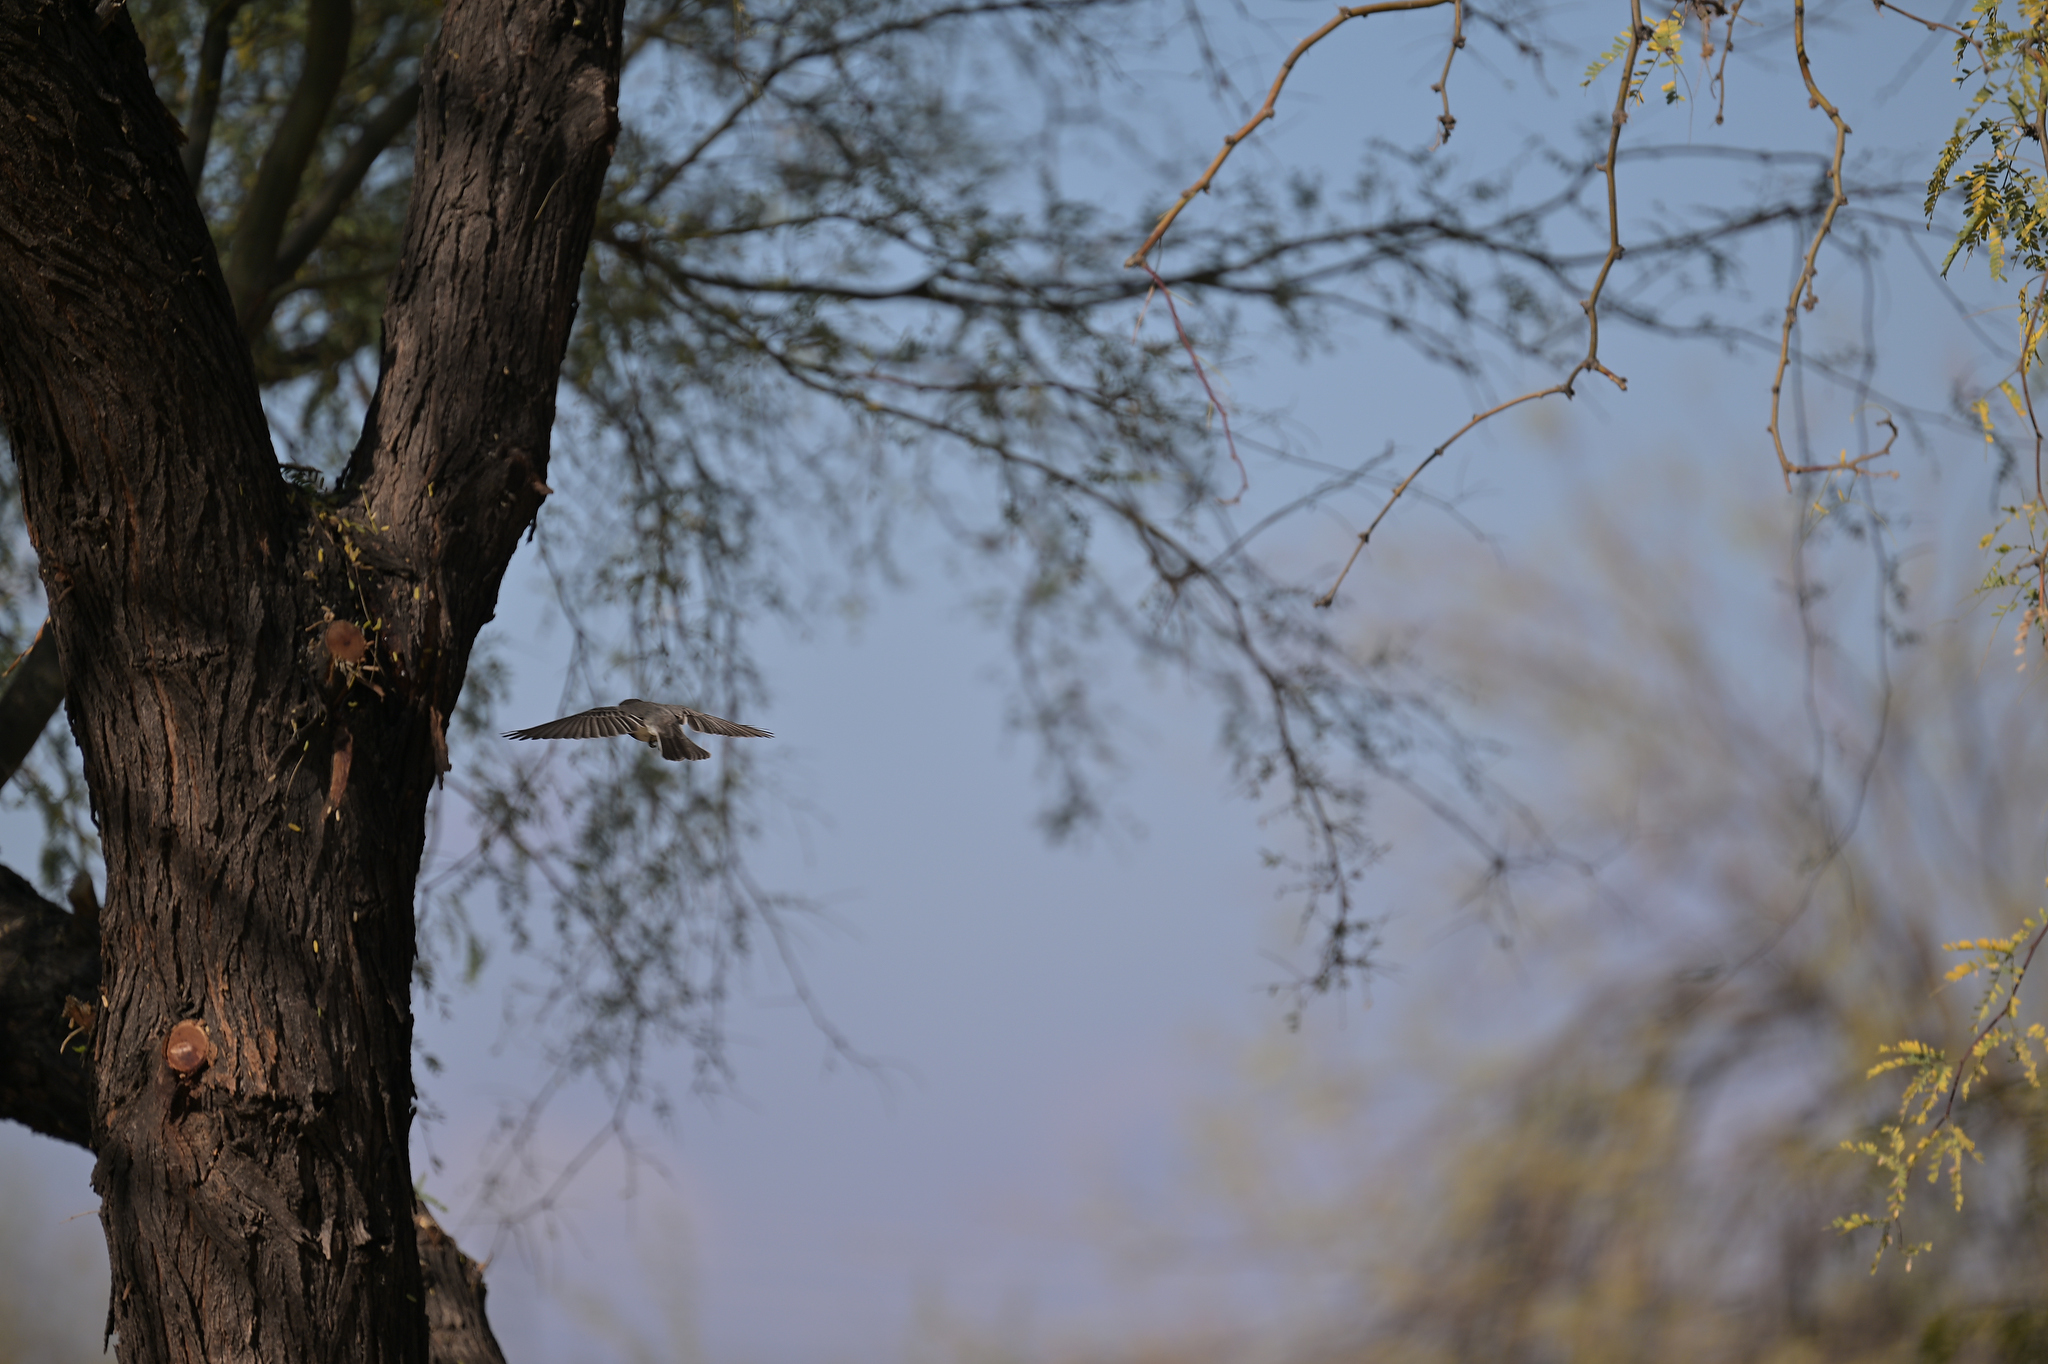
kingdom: Animalia
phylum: Chordata
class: Aves
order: Passeriformes
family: Tyrannidae
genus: Sayornis
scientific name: Sayornis nigricans
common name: Black phoebe
